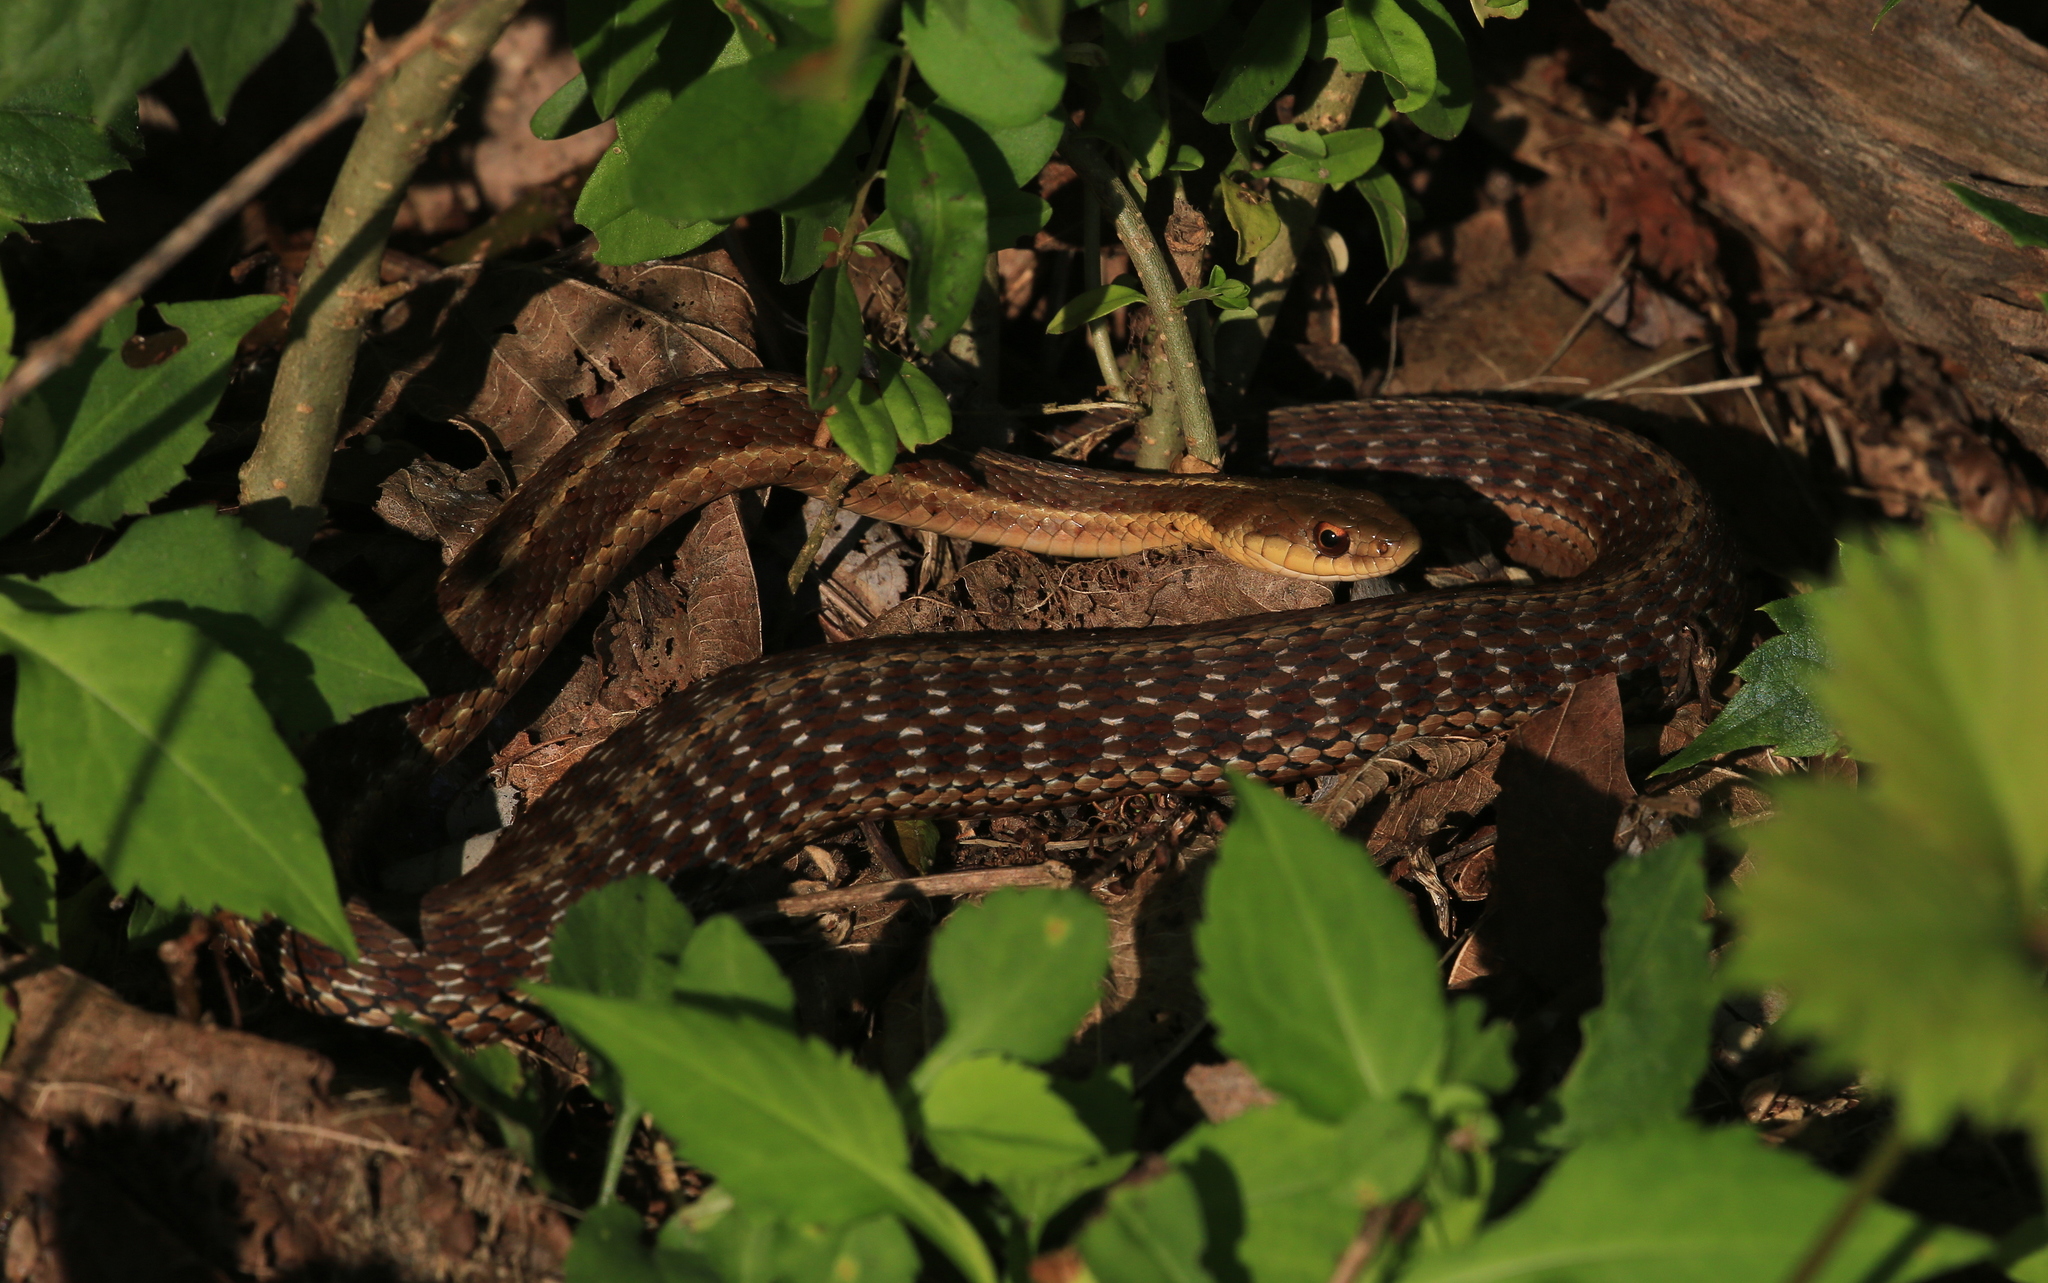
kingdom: Animalia
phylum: Chordata
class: Squamata
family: Colubridae
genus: Thamnophis
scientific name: Thamnophis sirtalis
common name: Common garter snake
